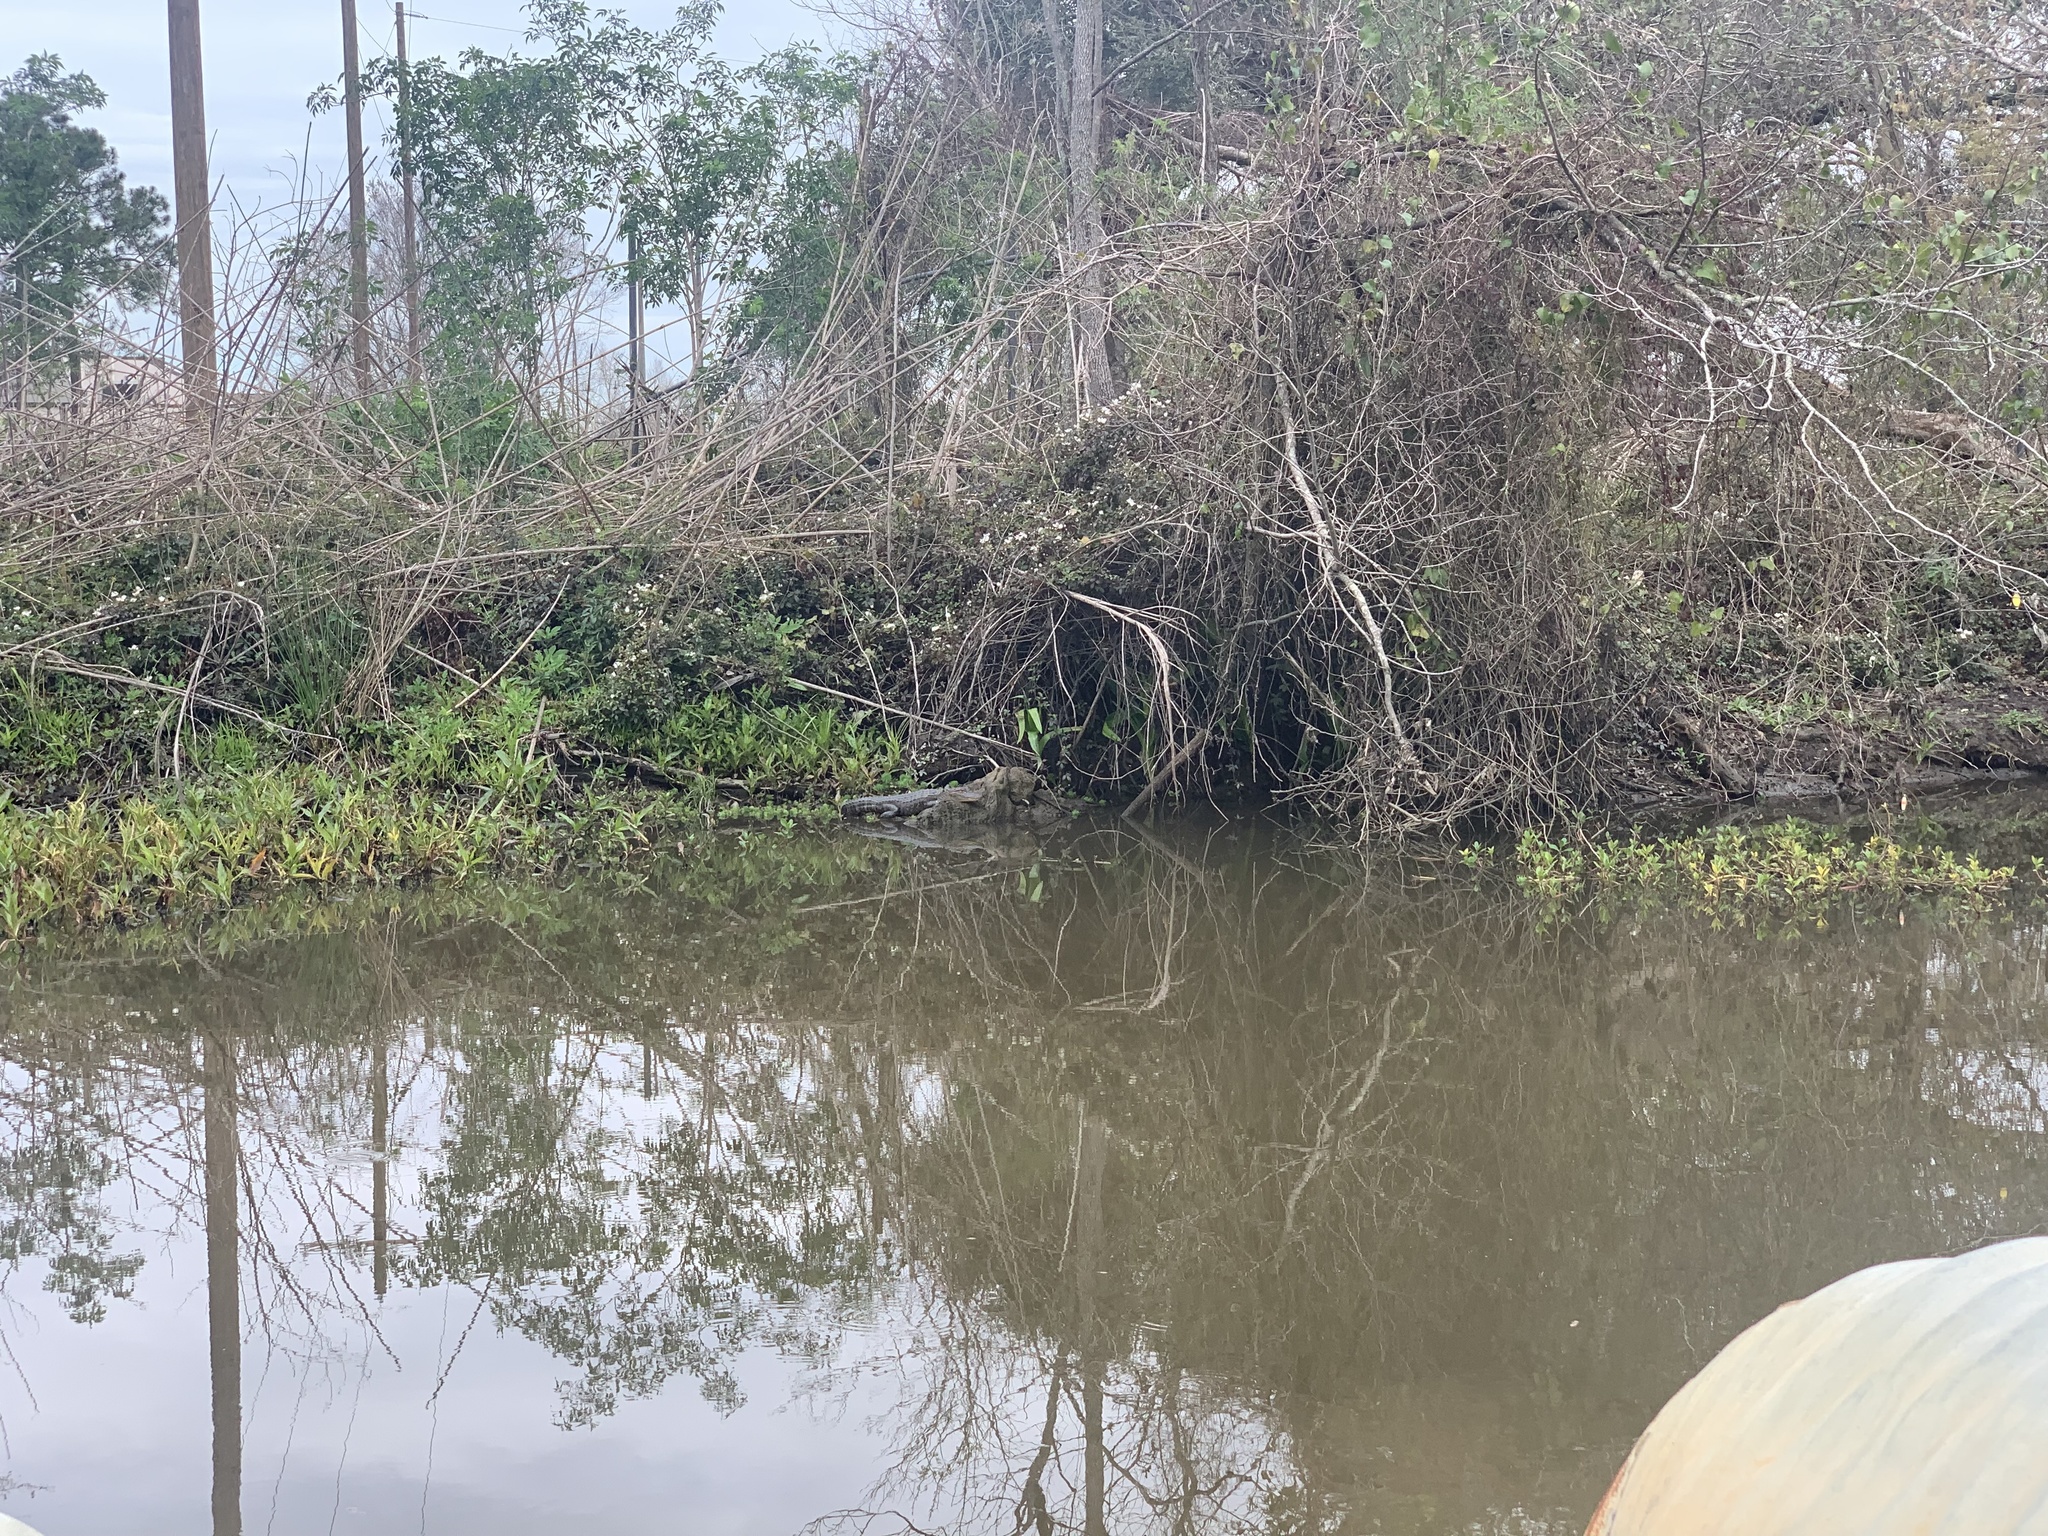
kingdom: Animalia
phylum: Chordata
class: Crocodylia
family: Alligatoridae
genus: Alligator
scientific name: Alligator mississippiensis
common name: American alligator
